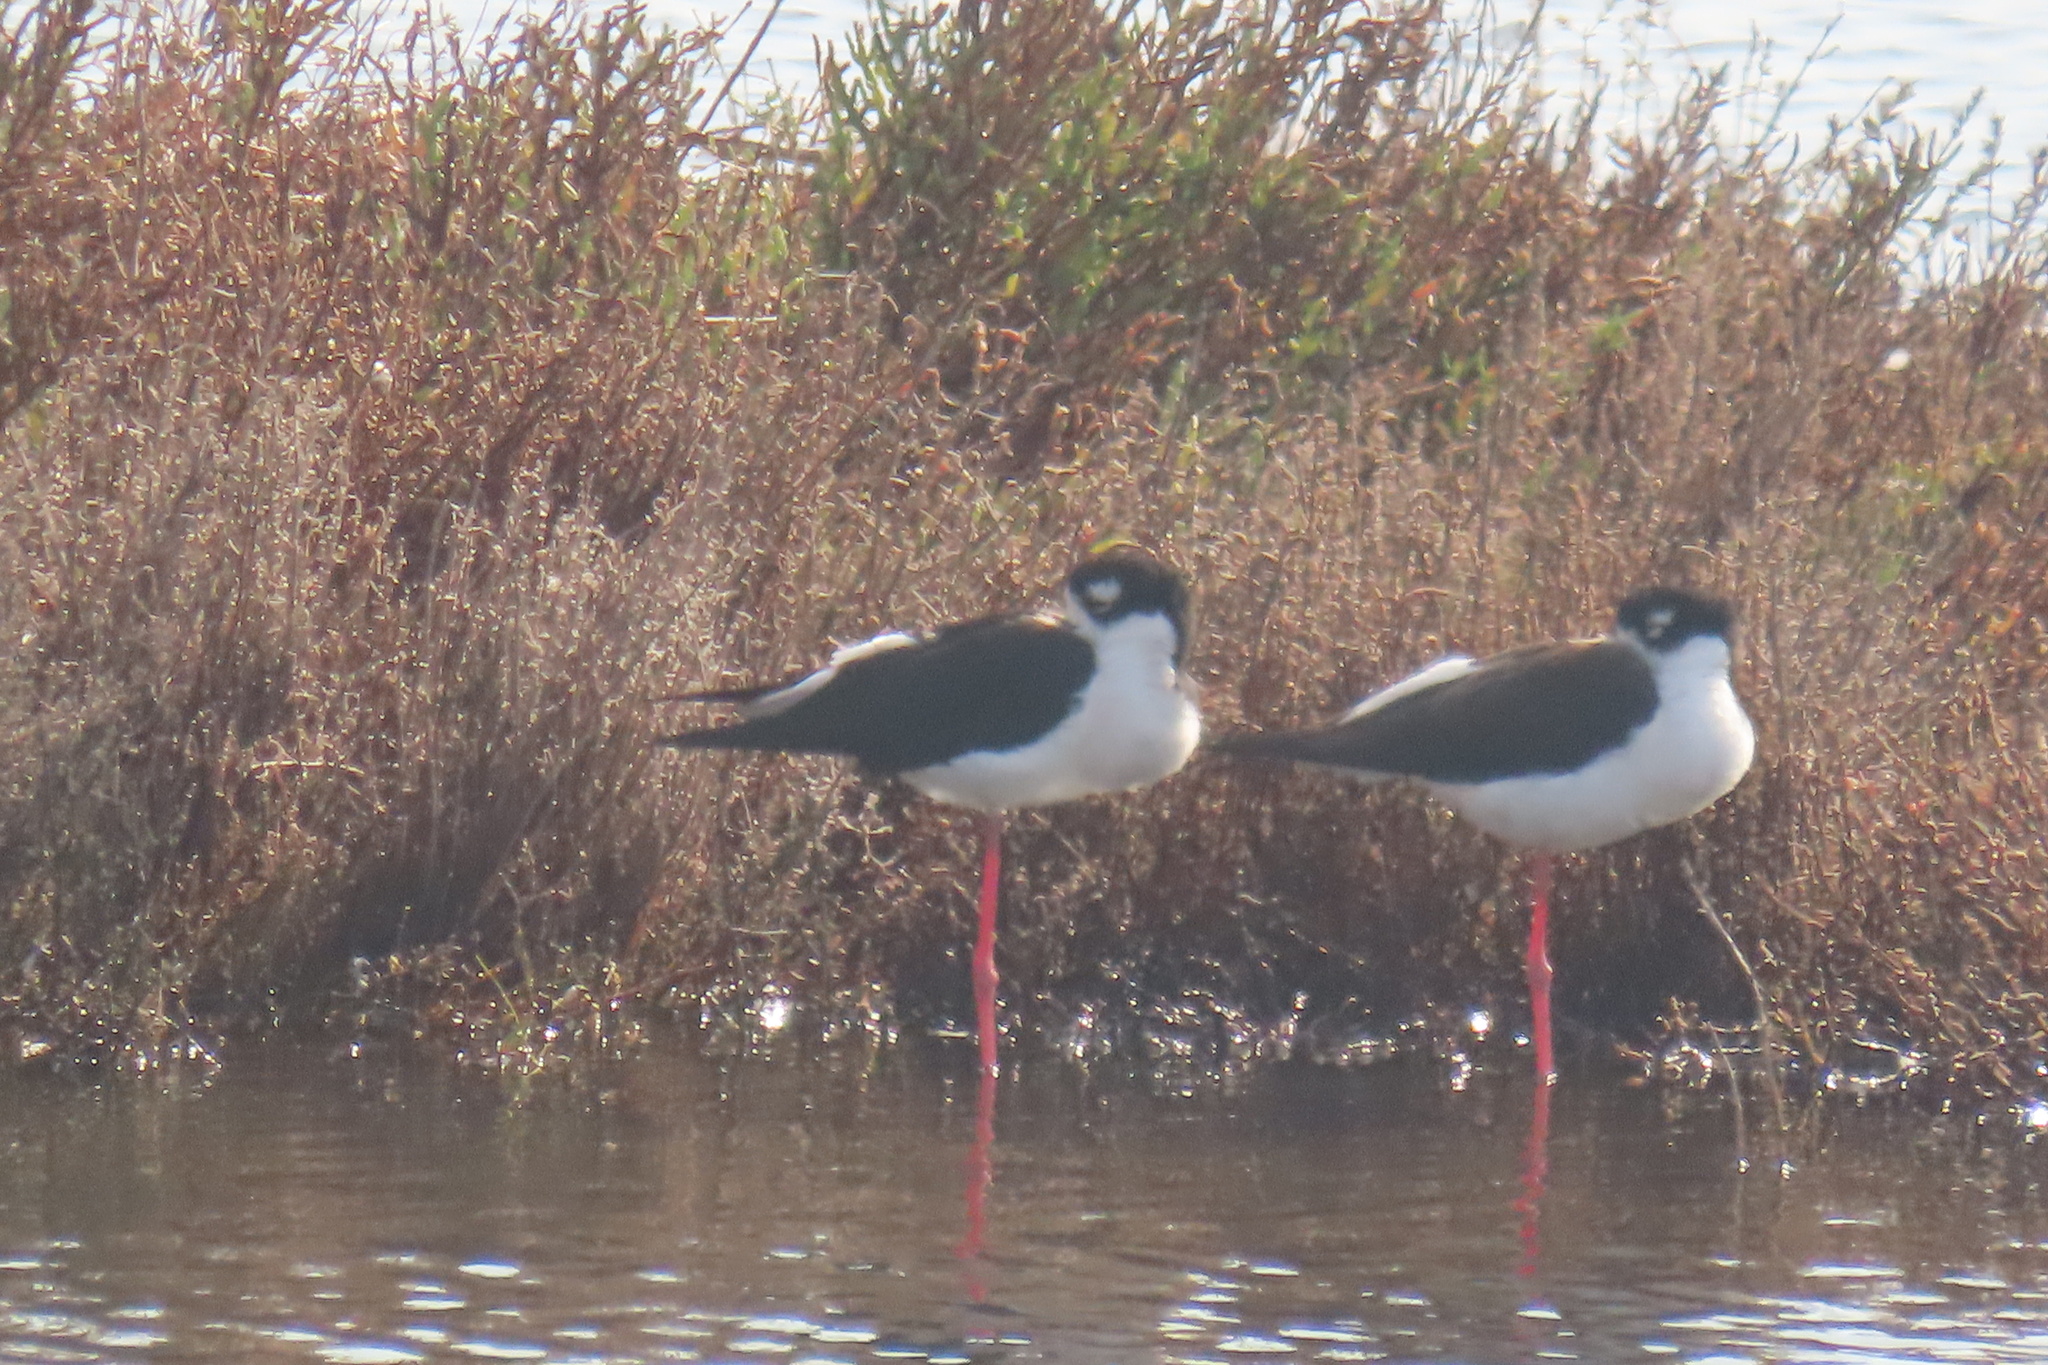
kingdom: Animalia
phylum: Chordata
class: Aves
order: Charadriiformes
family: Recurvirostridae
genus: Himantopus
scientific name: Himantopus mexicanus
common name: Black-necked stilt
